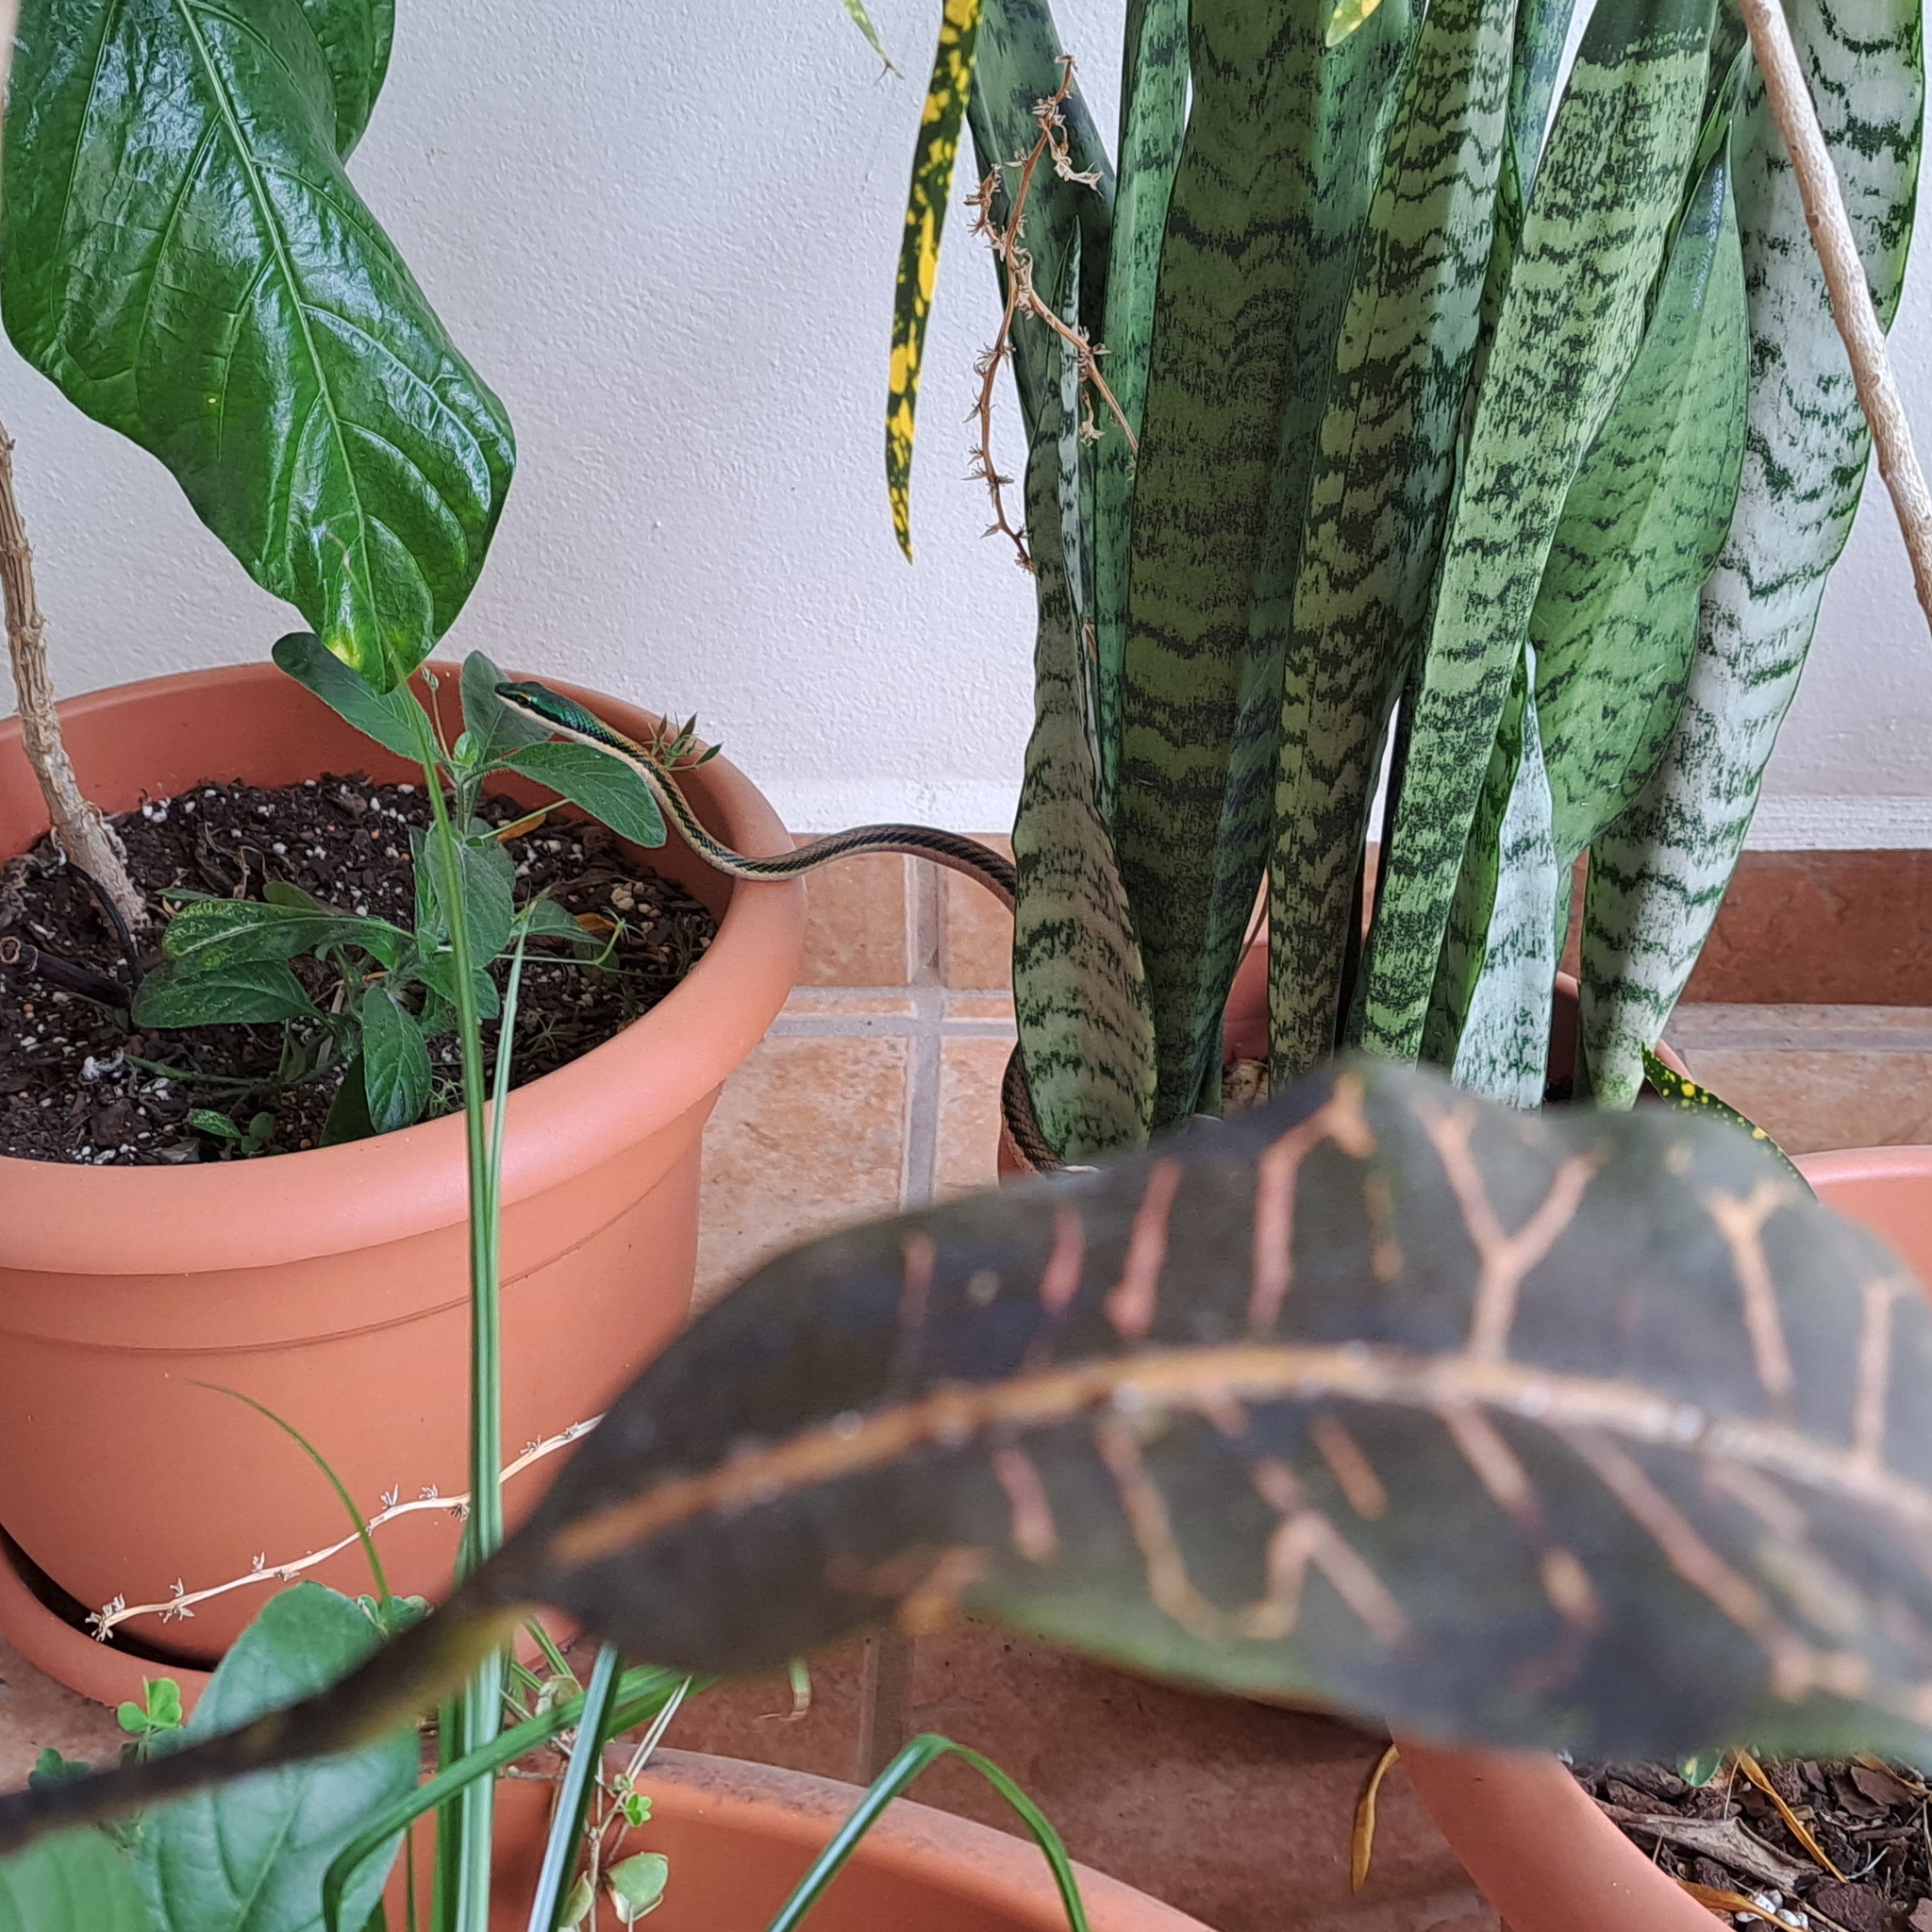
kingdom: Animalia
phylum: Chordata
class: Squamata
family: Colubridae
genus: Leptophis
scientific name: Leptophis mexicanus
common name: Mexican parrot snake
